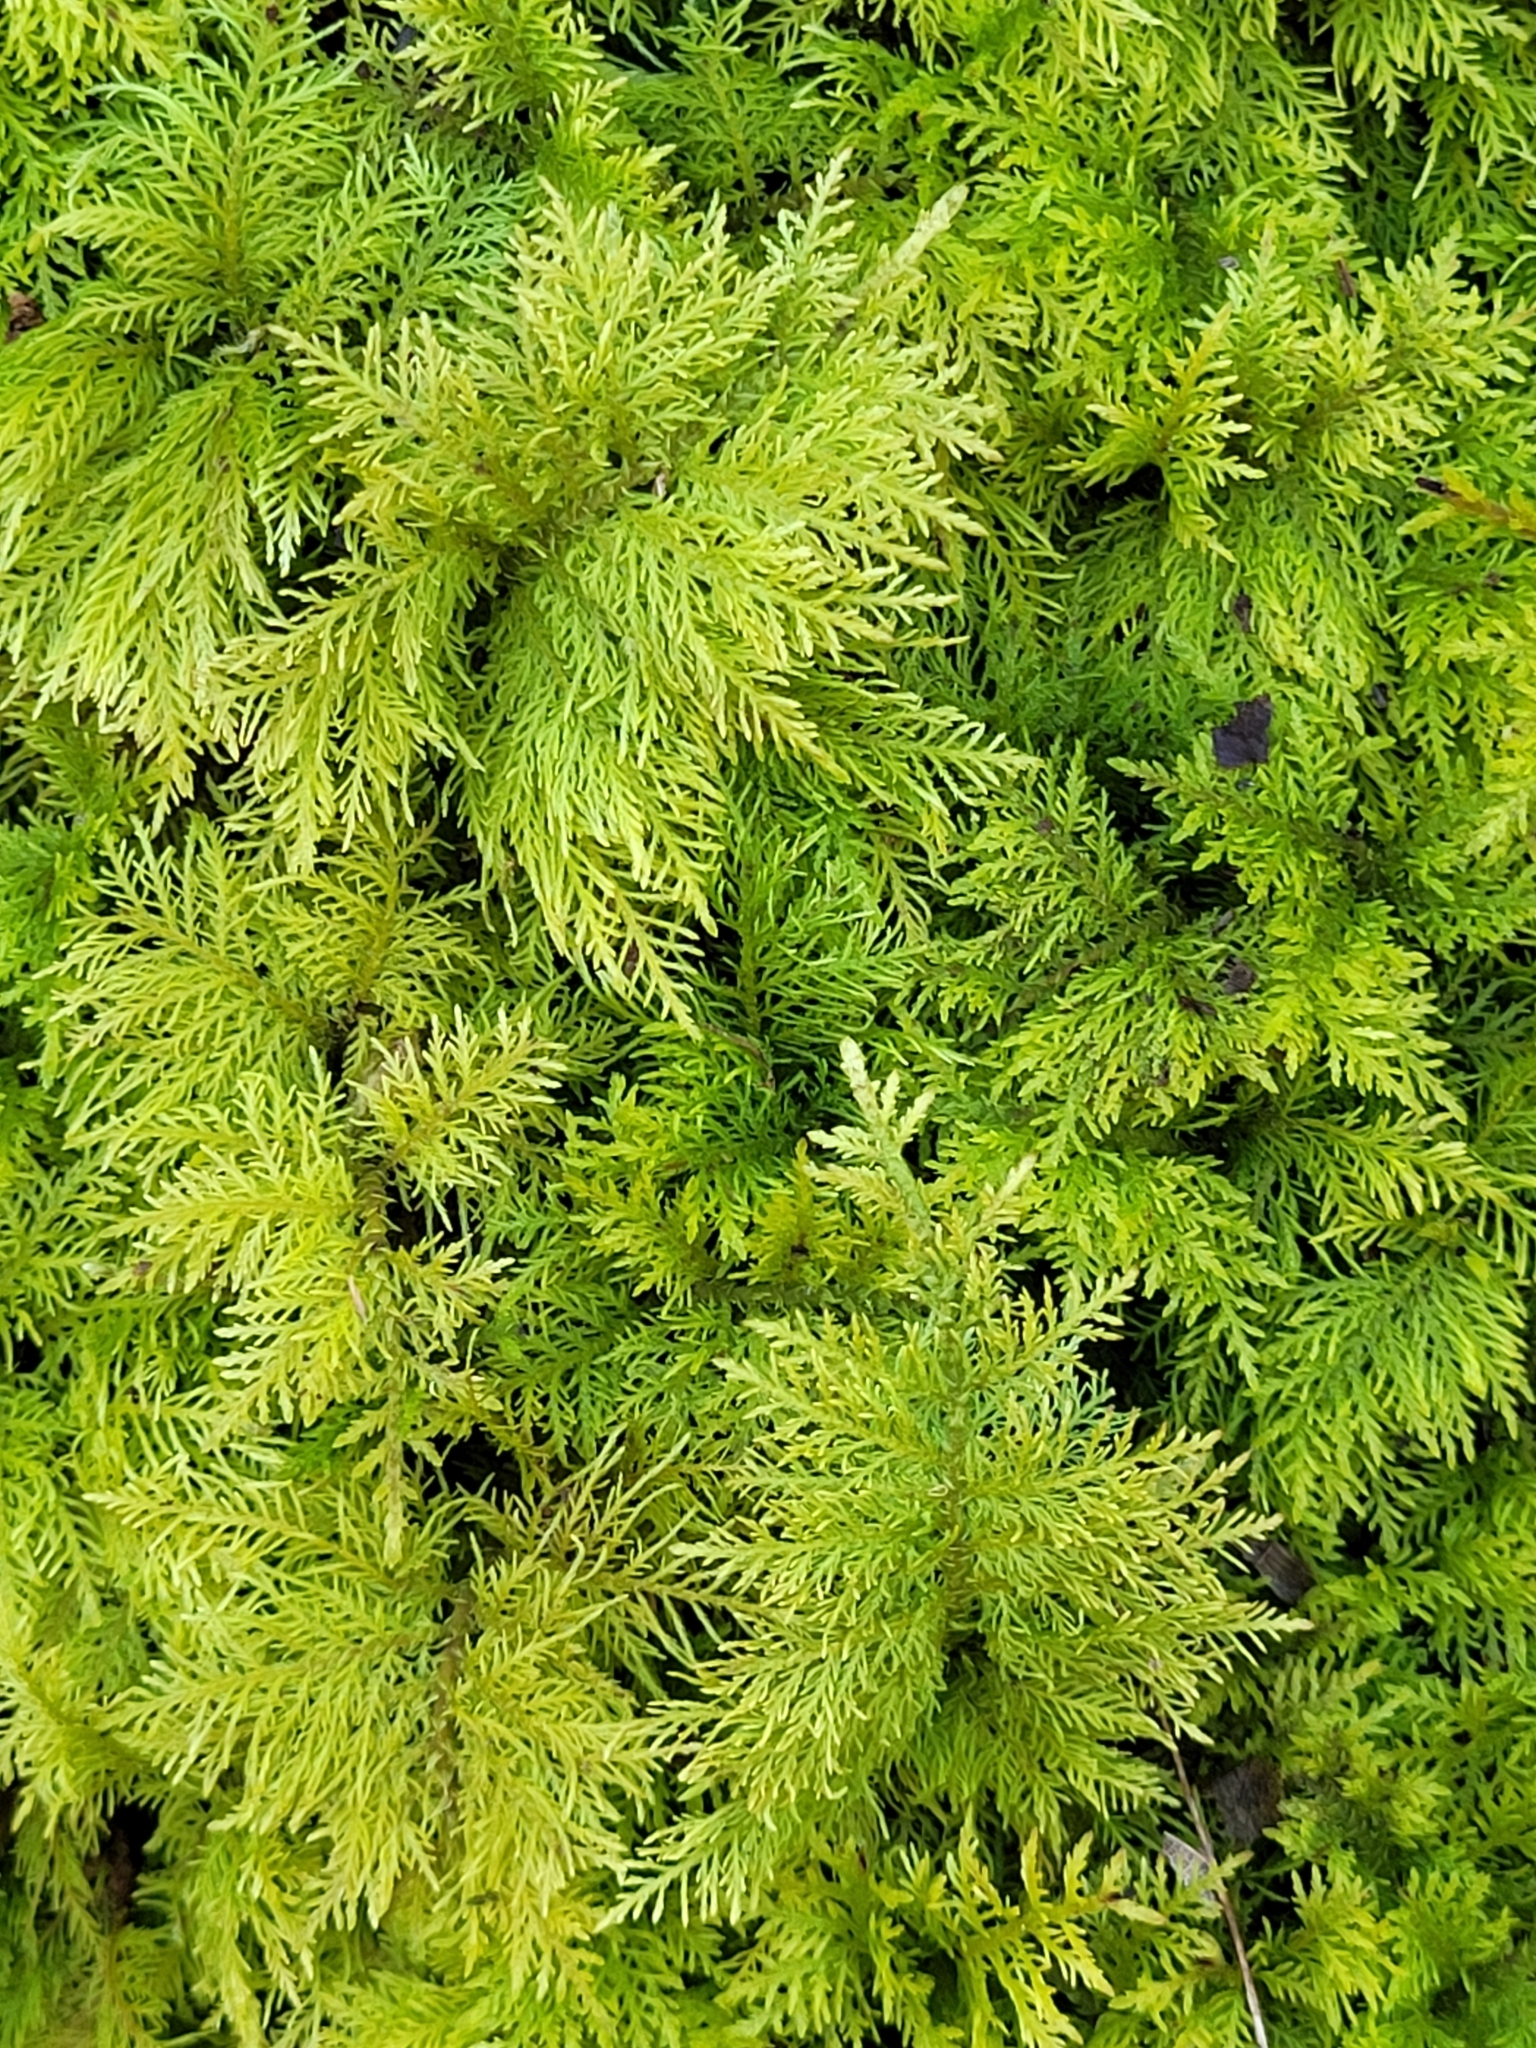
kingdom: Plantae
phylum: Bryophyta
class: Bryopsida
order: Hypnales
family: Thuidiaceae
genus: Thuidium
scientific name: Thuidium tamariscinum
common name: Common tamarisk-moss
